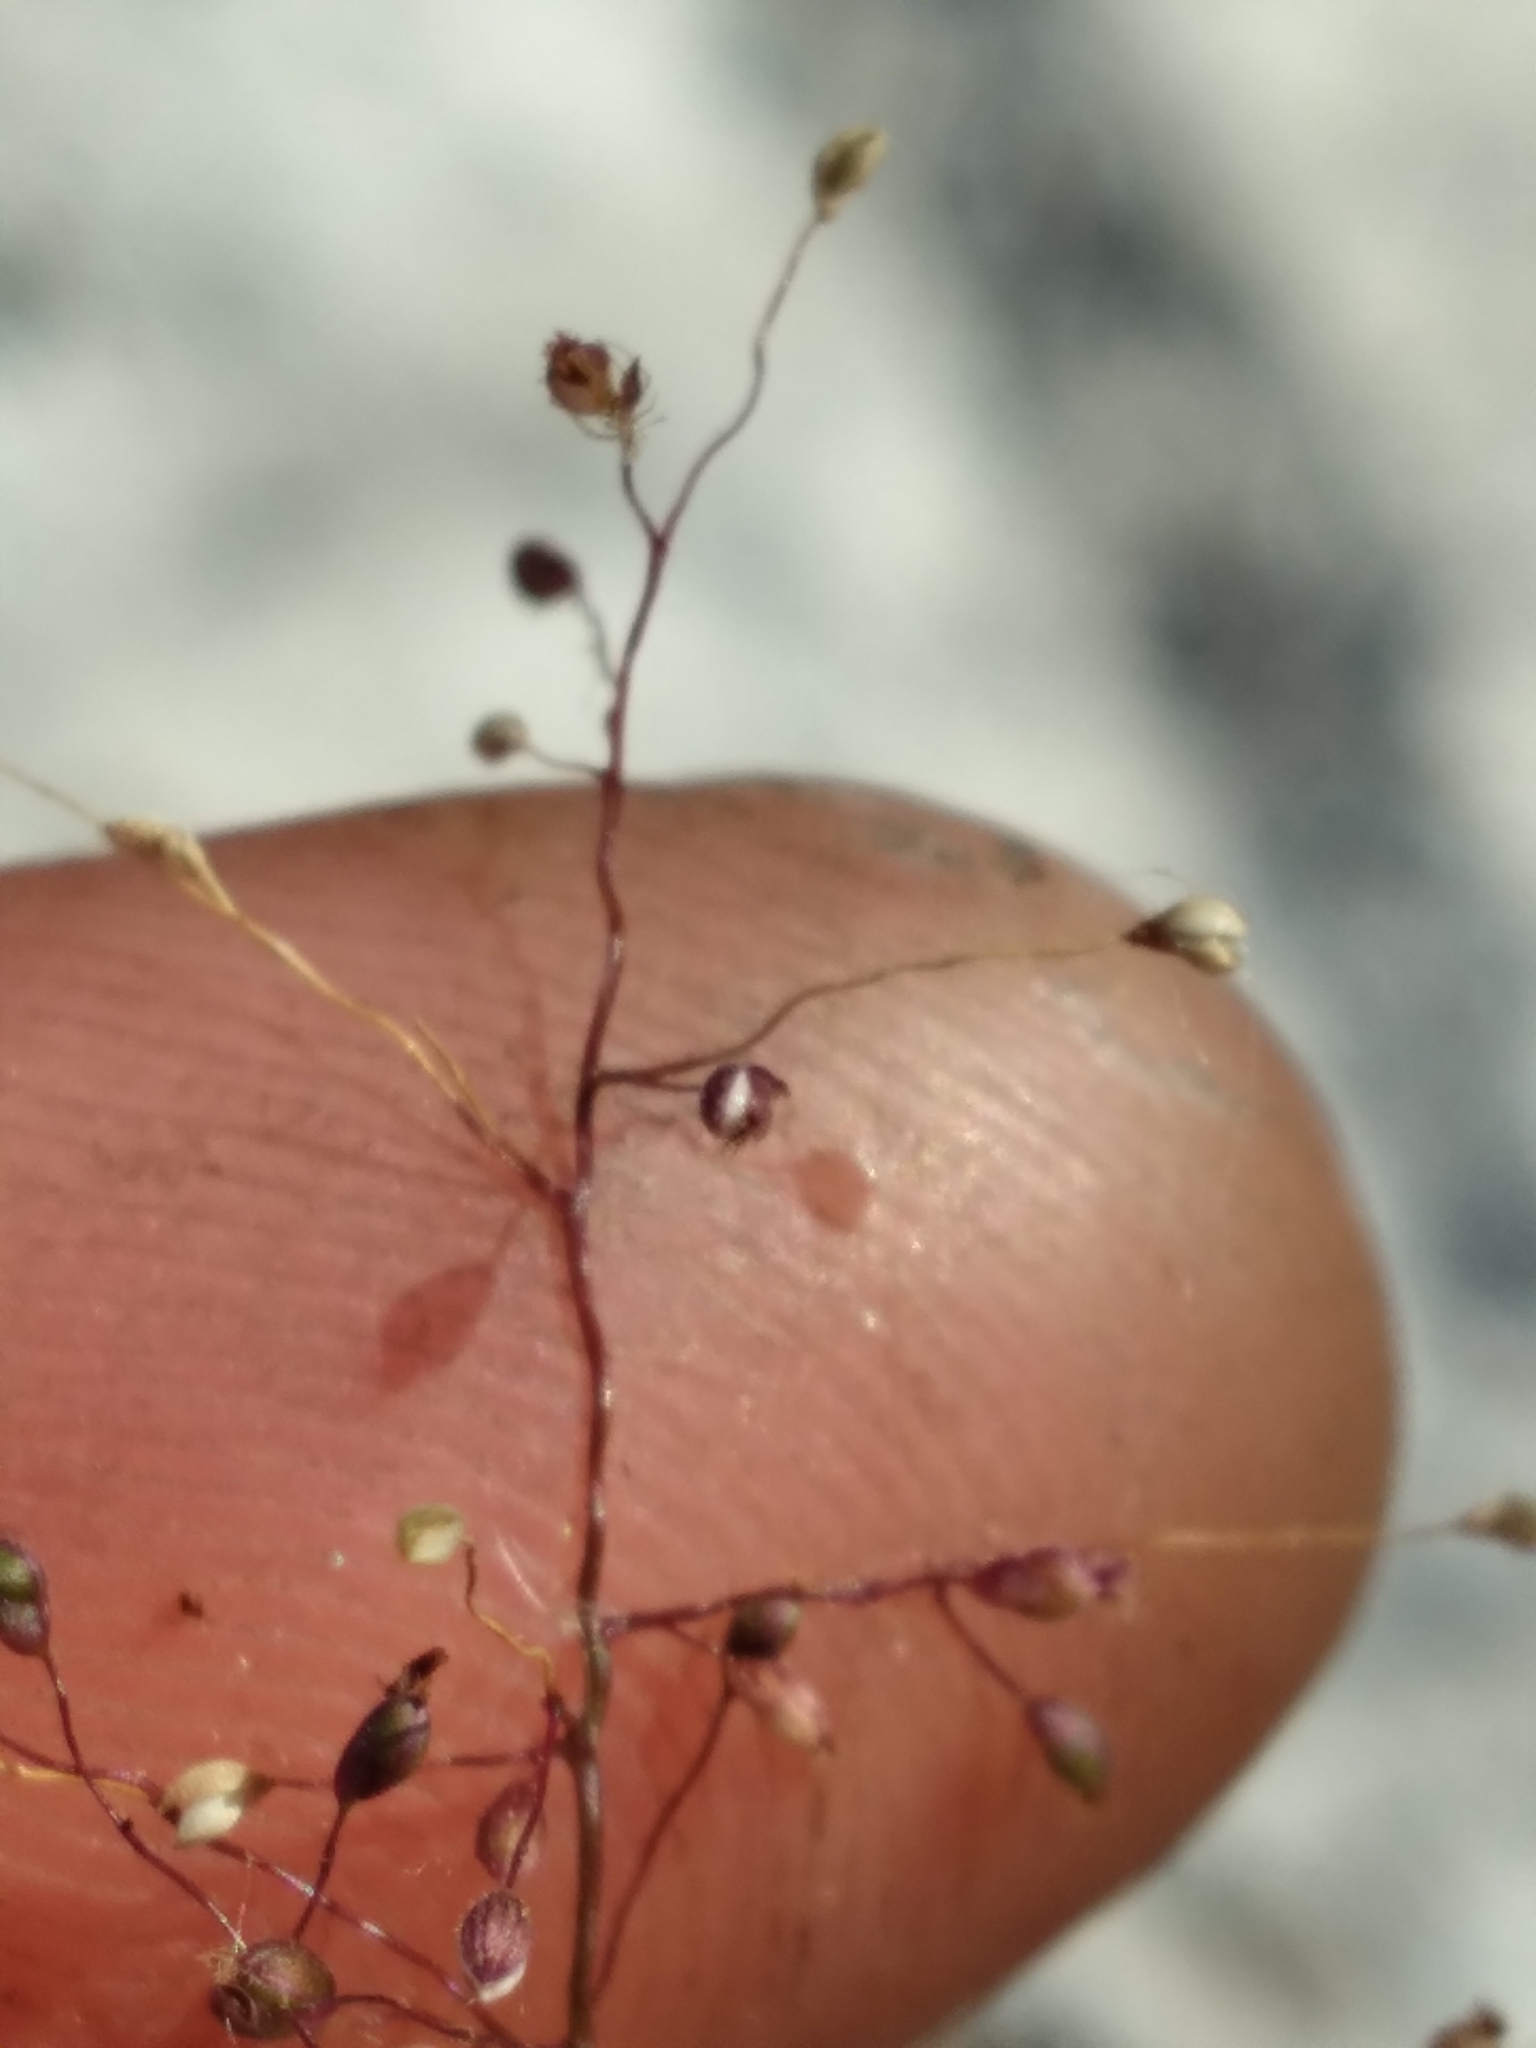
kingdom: Plantae
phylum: Tracheophyta
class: Liliopsida
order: Poales
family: Poaceae
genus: Dichanthelium
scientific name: Dichanthelium breve
